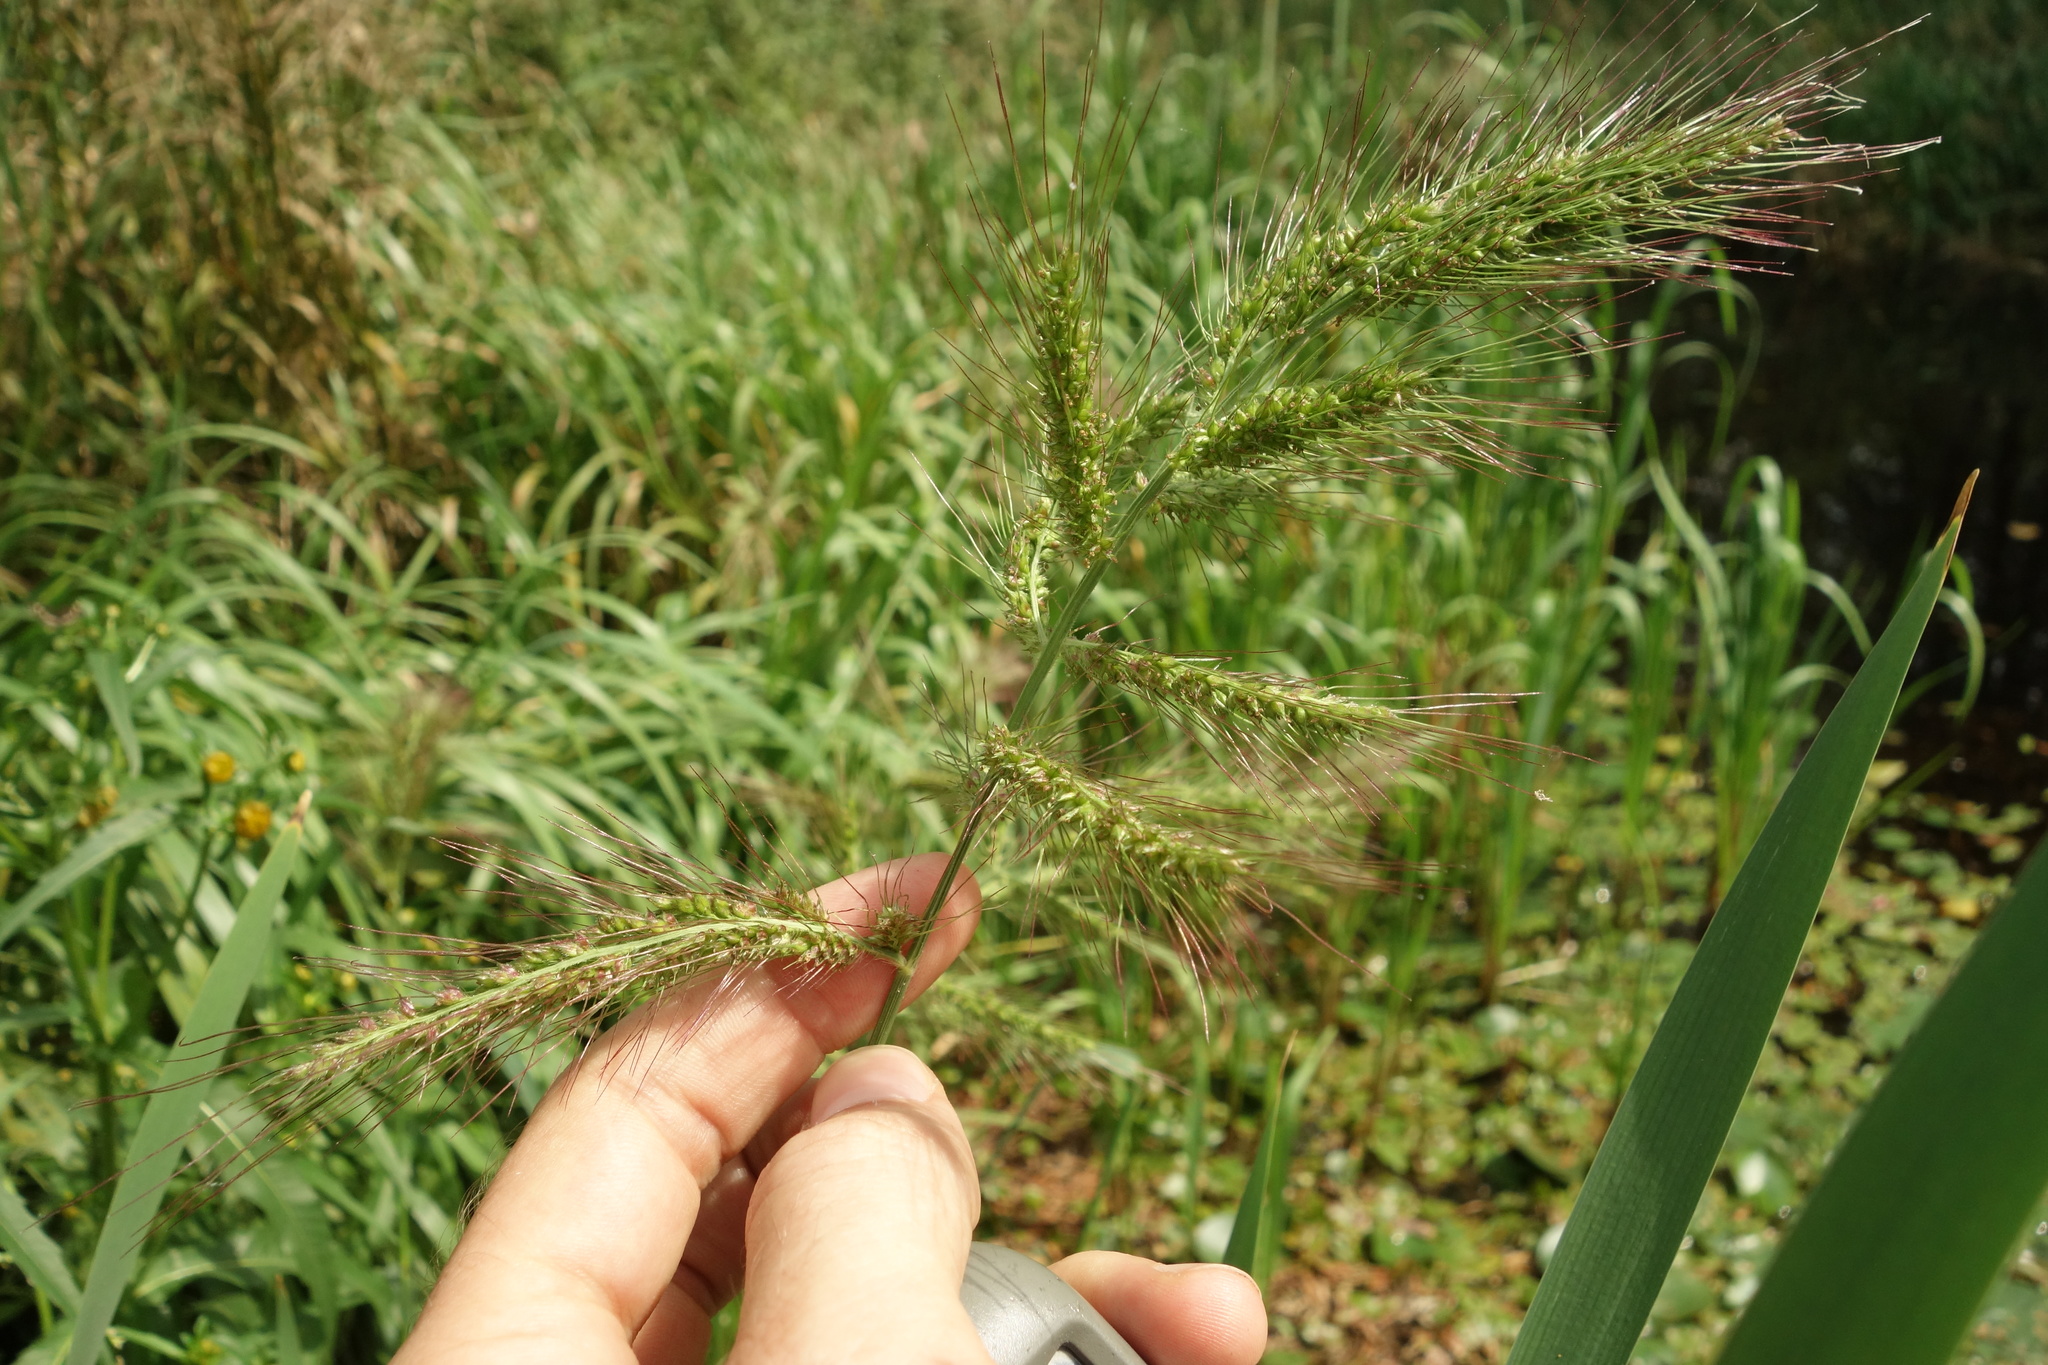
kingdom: Plantae
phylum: Tracheophyta
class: Liliopsida
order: Poales
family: Poaceae
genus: Echinochloa
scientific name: Echinochloa crus-galli
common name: Cockspur
